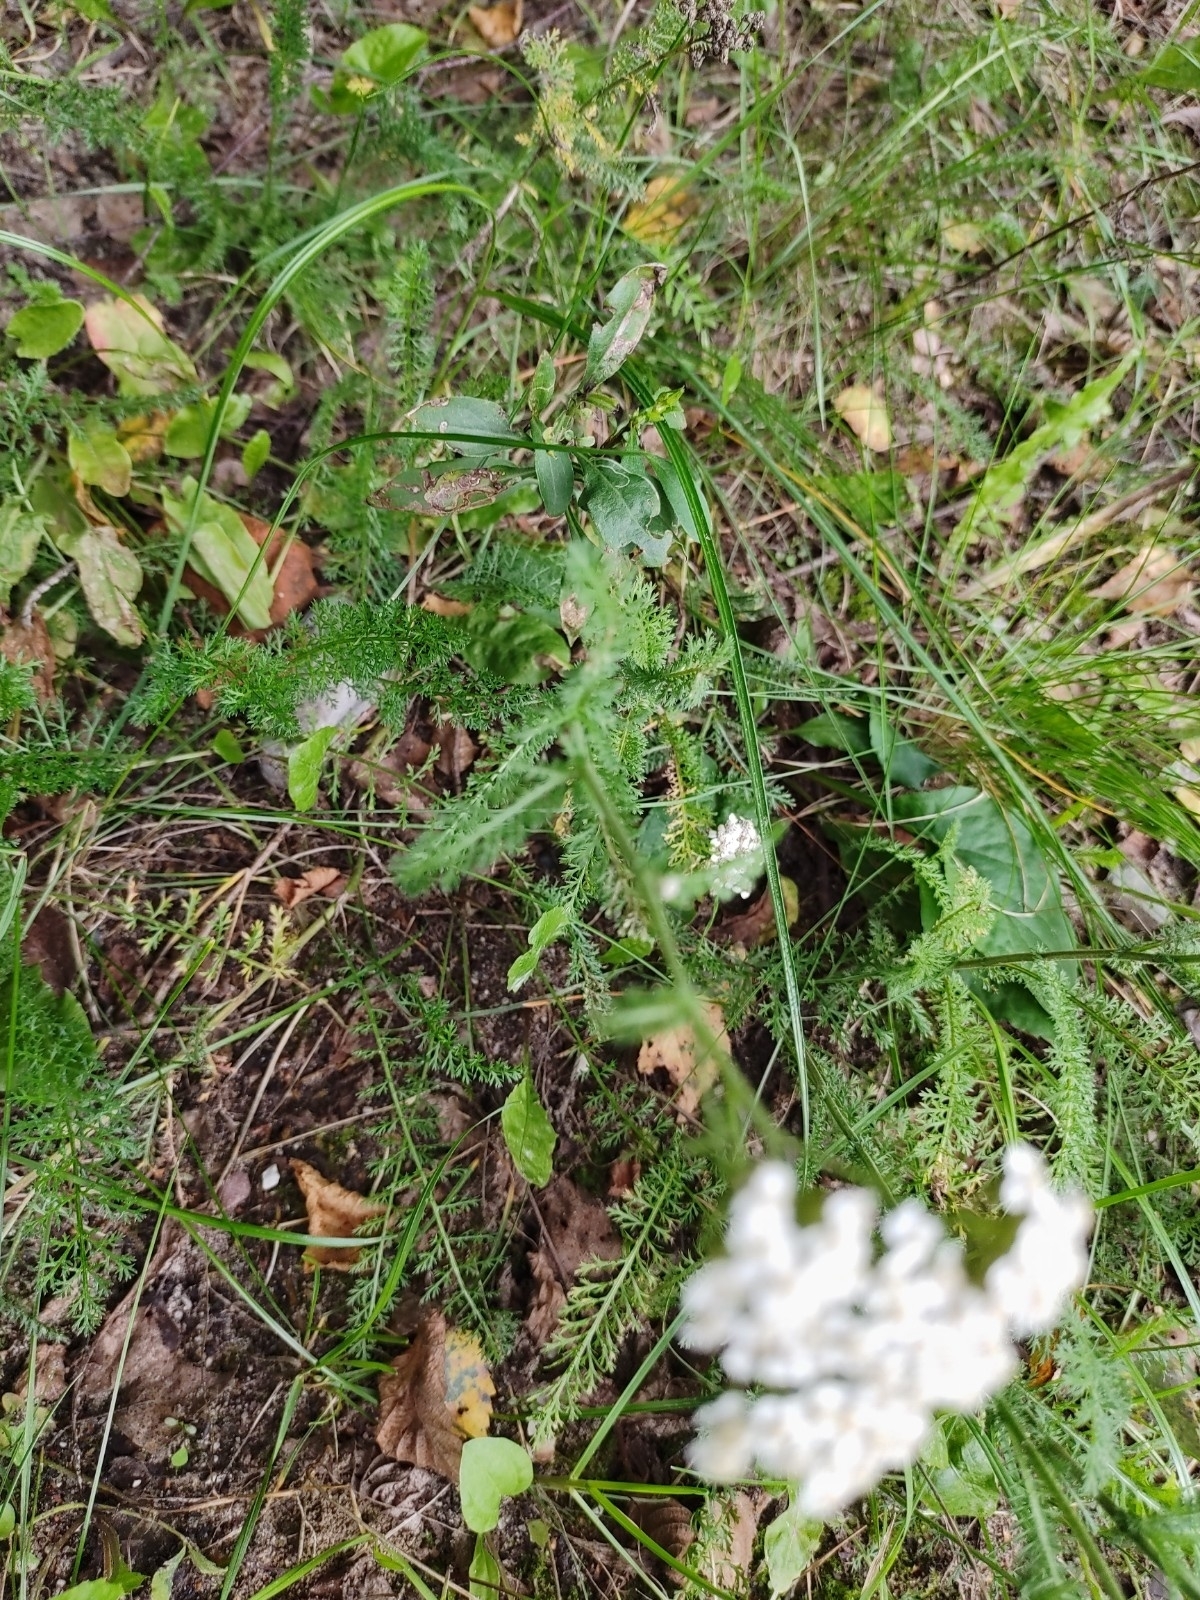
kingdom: Plantae
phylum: Tracheophyta
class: Magnoliopsida
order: Asterales
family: Asteraceae
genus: Achillea
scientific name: Achillea millefolium
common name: Yarrow
